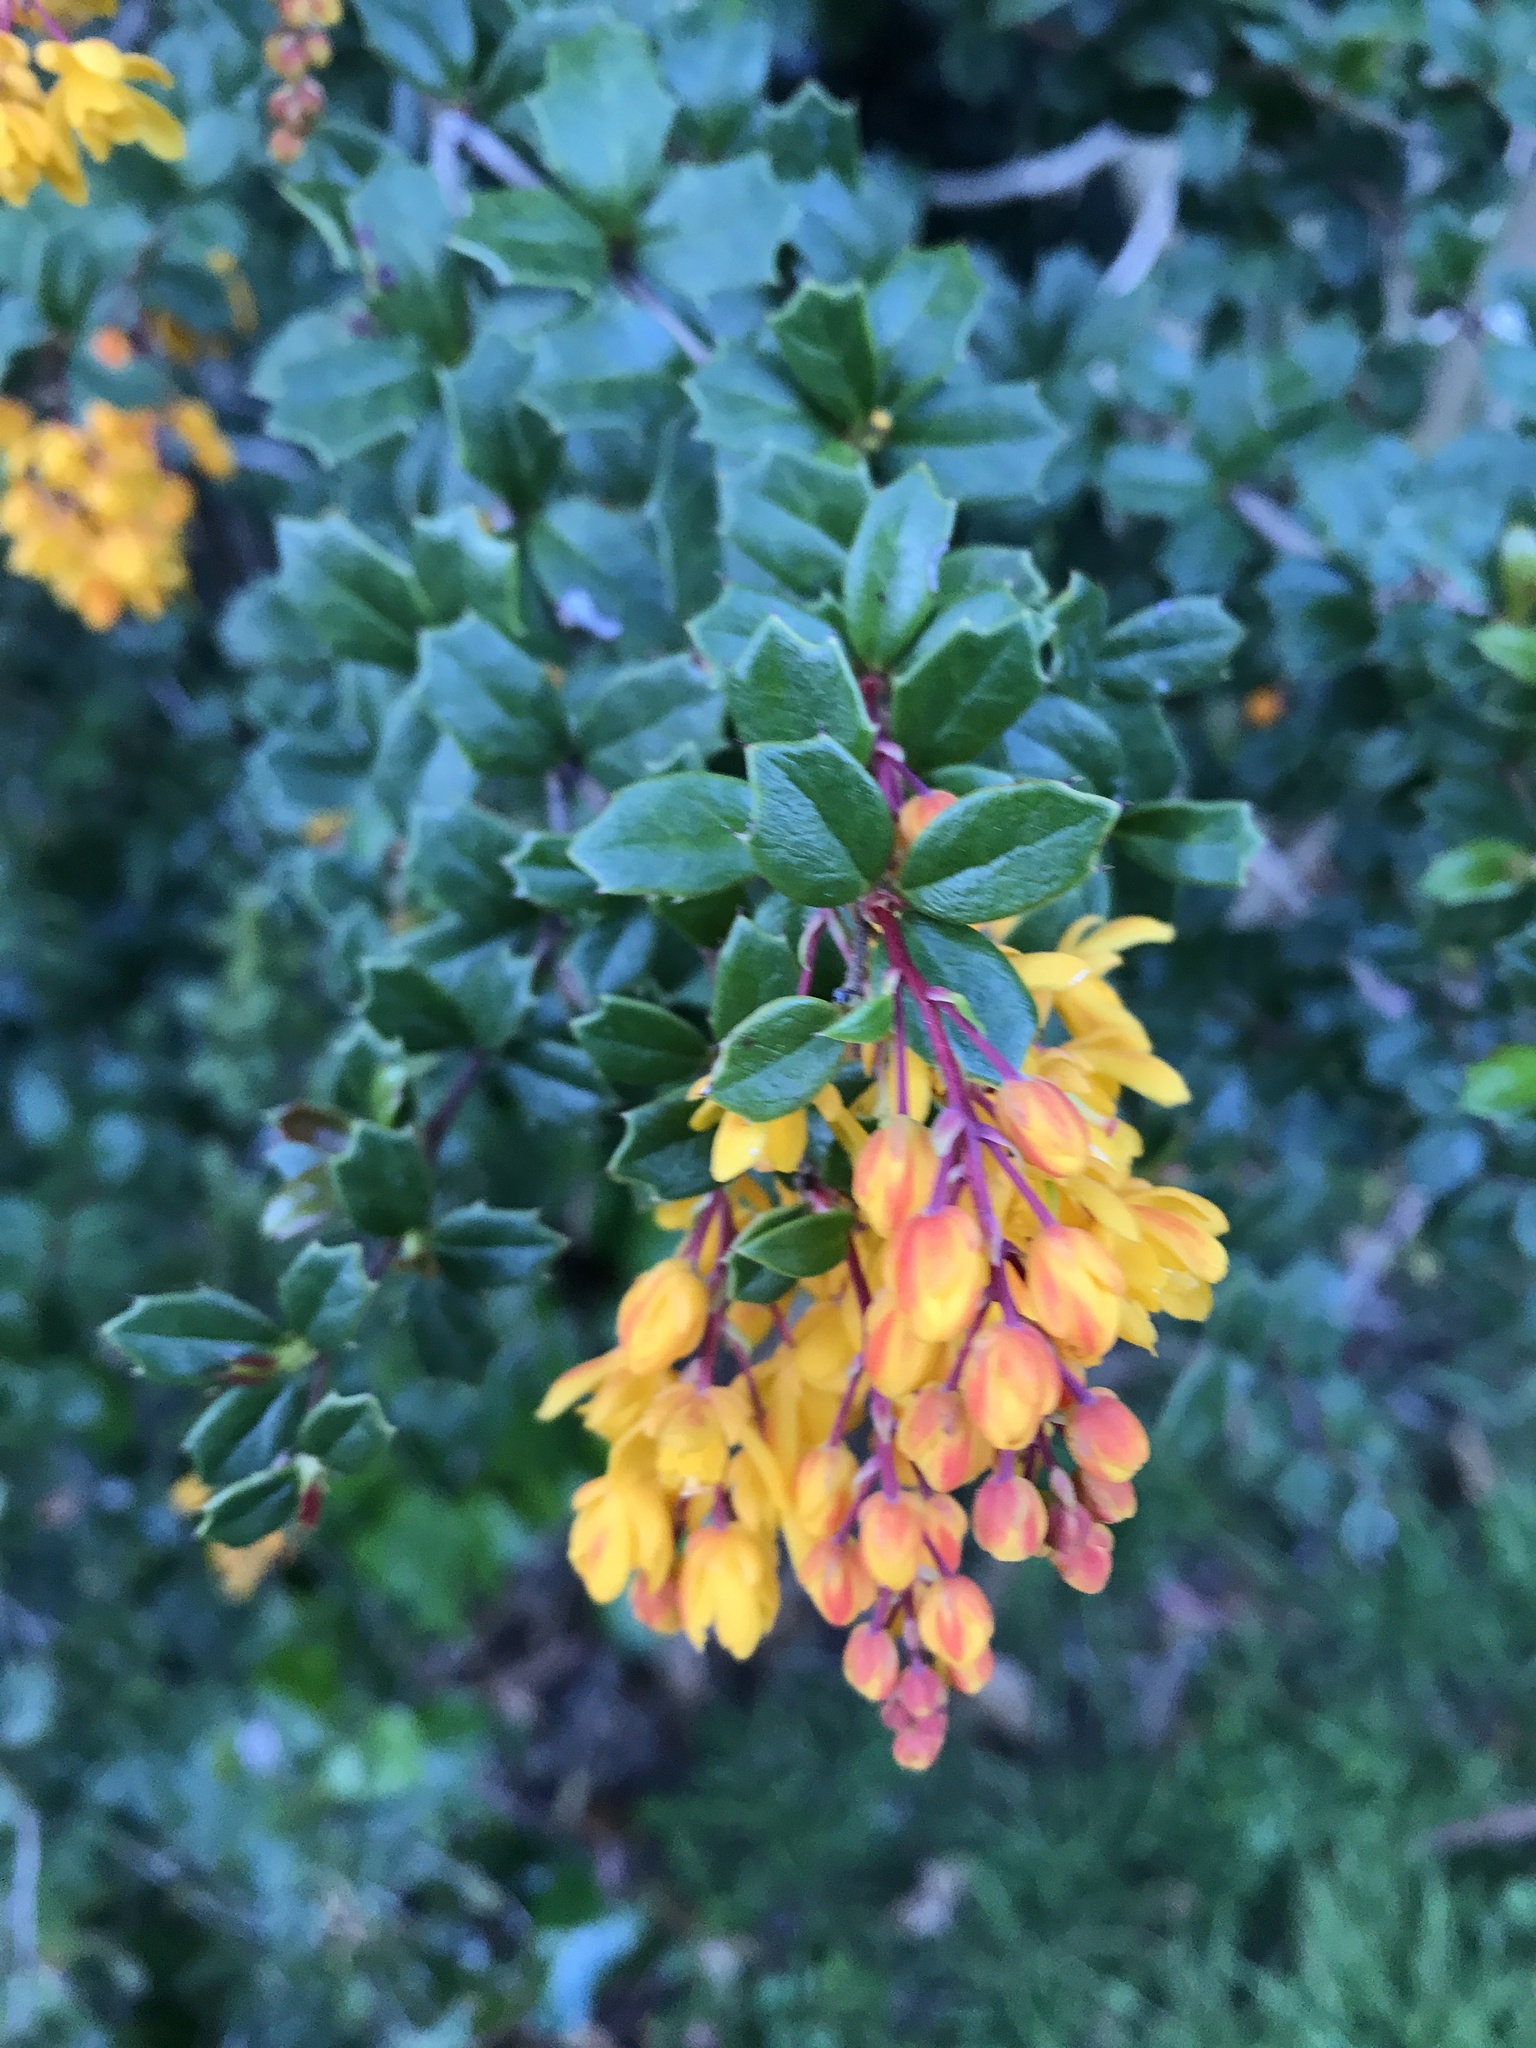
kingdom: Plantae
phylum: Tracheophyta
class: Magnoliopsida
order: Ranunculales
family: Berberidaceae
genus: Berberis
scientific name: Berberis darwinii
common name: Darwin's barberry
